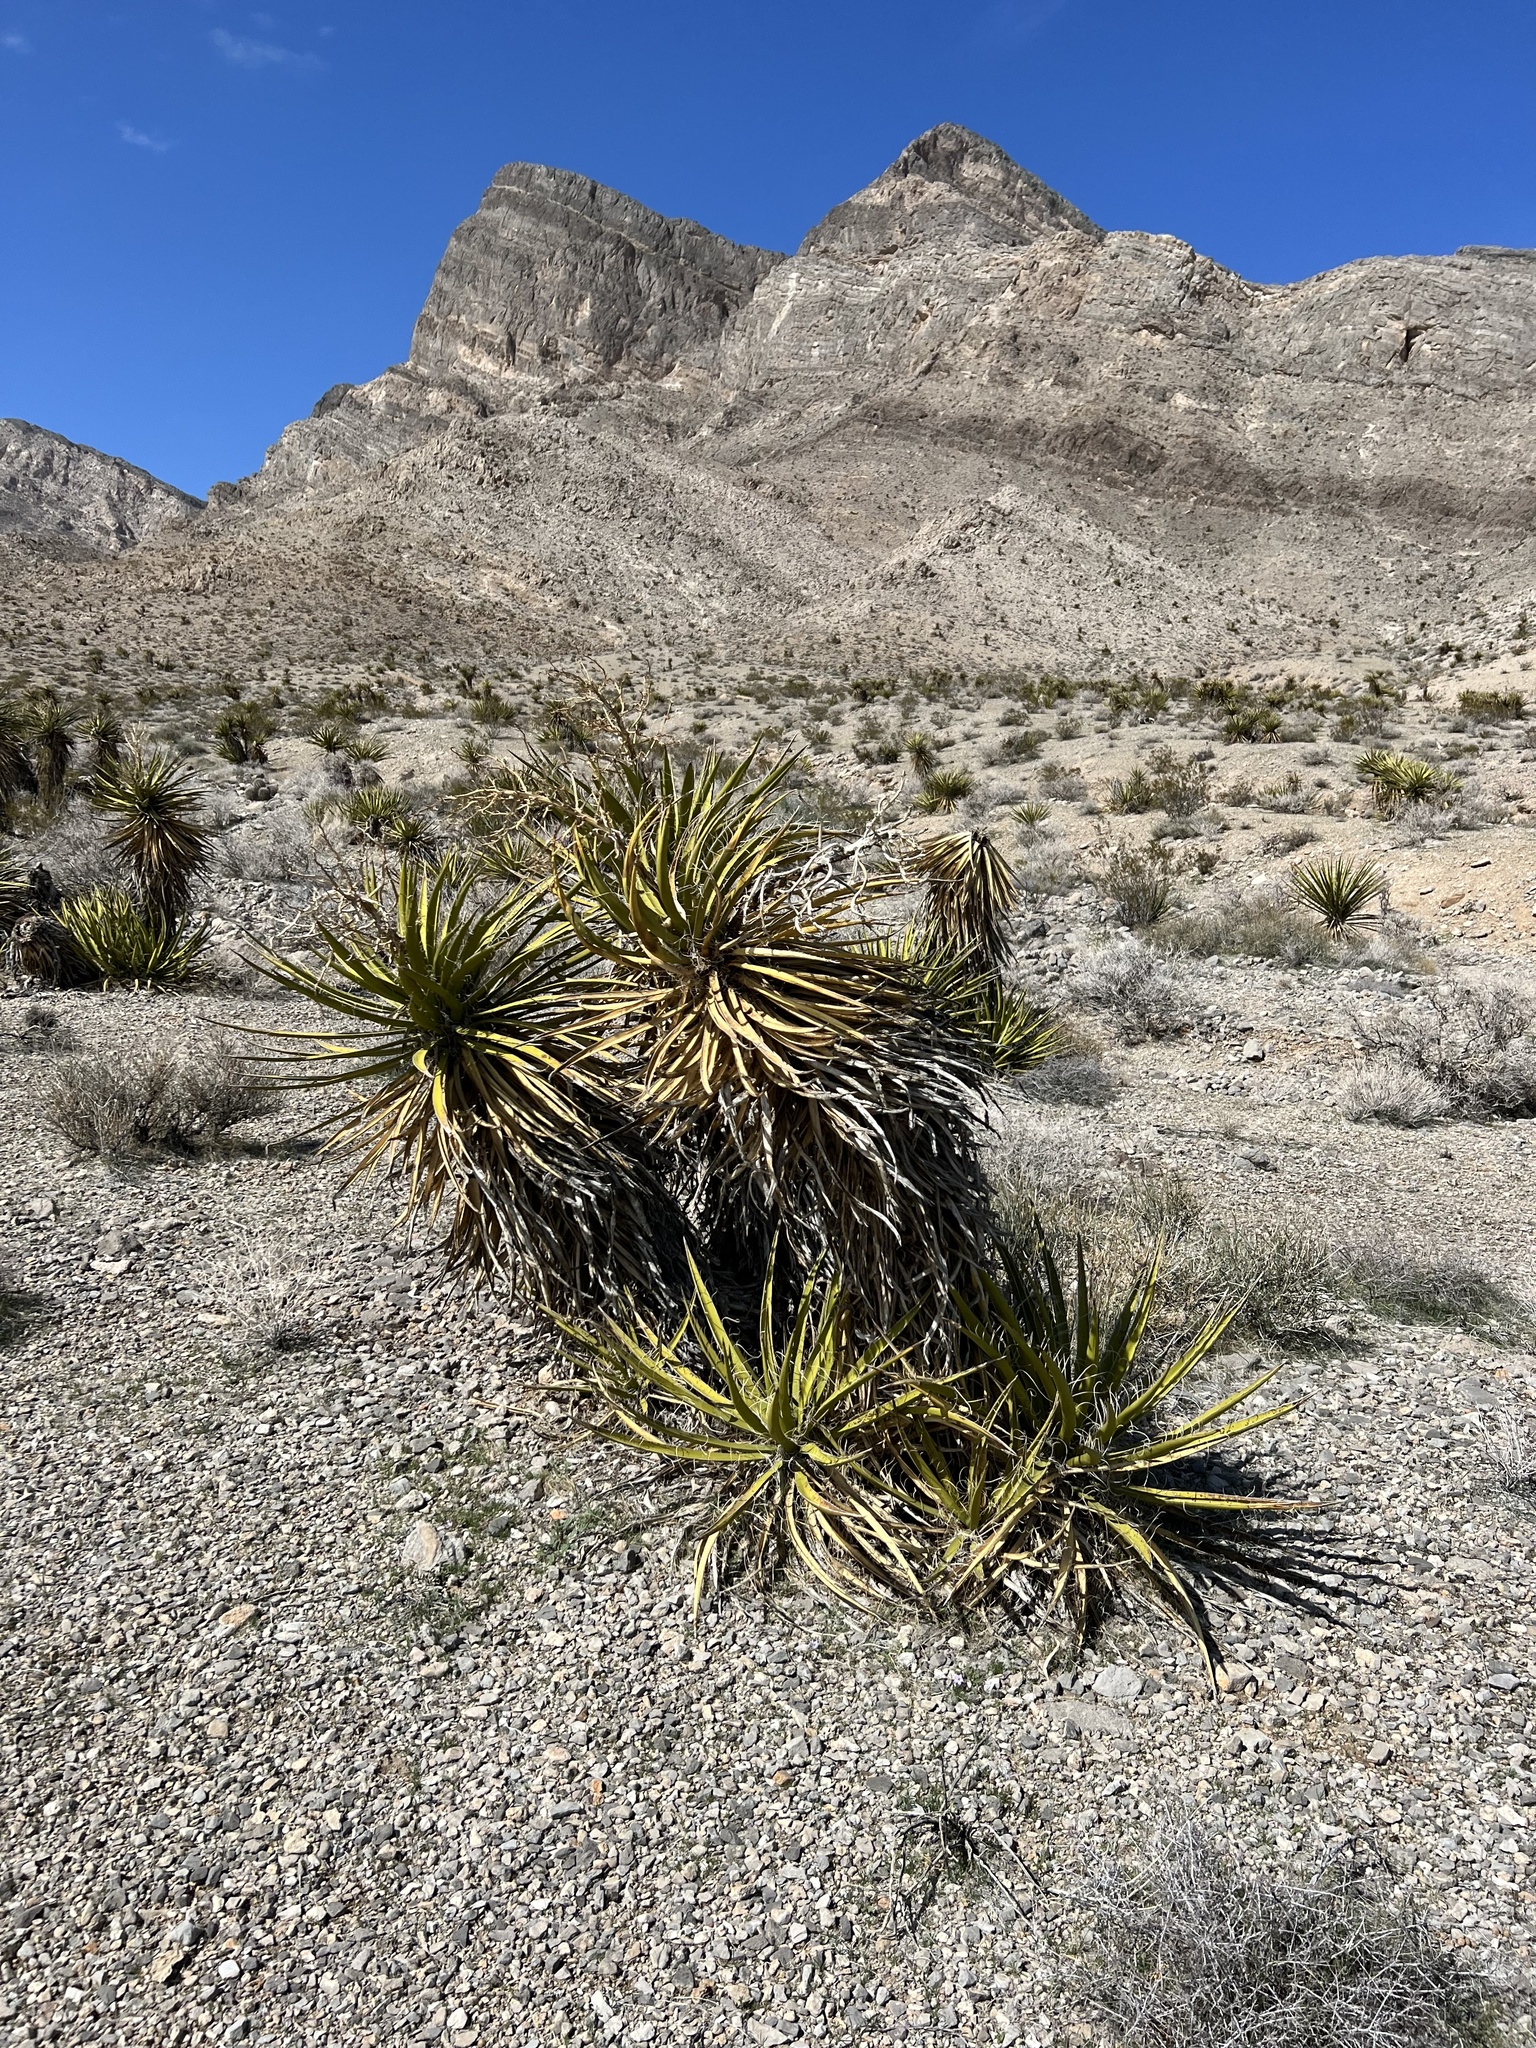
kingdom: Plantae
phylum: Tracheophyta
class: Liliopsida
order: Asparagales
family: Asparagaceae
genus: Yucca
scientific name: Yucca schidigera
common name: Mojave yucca
